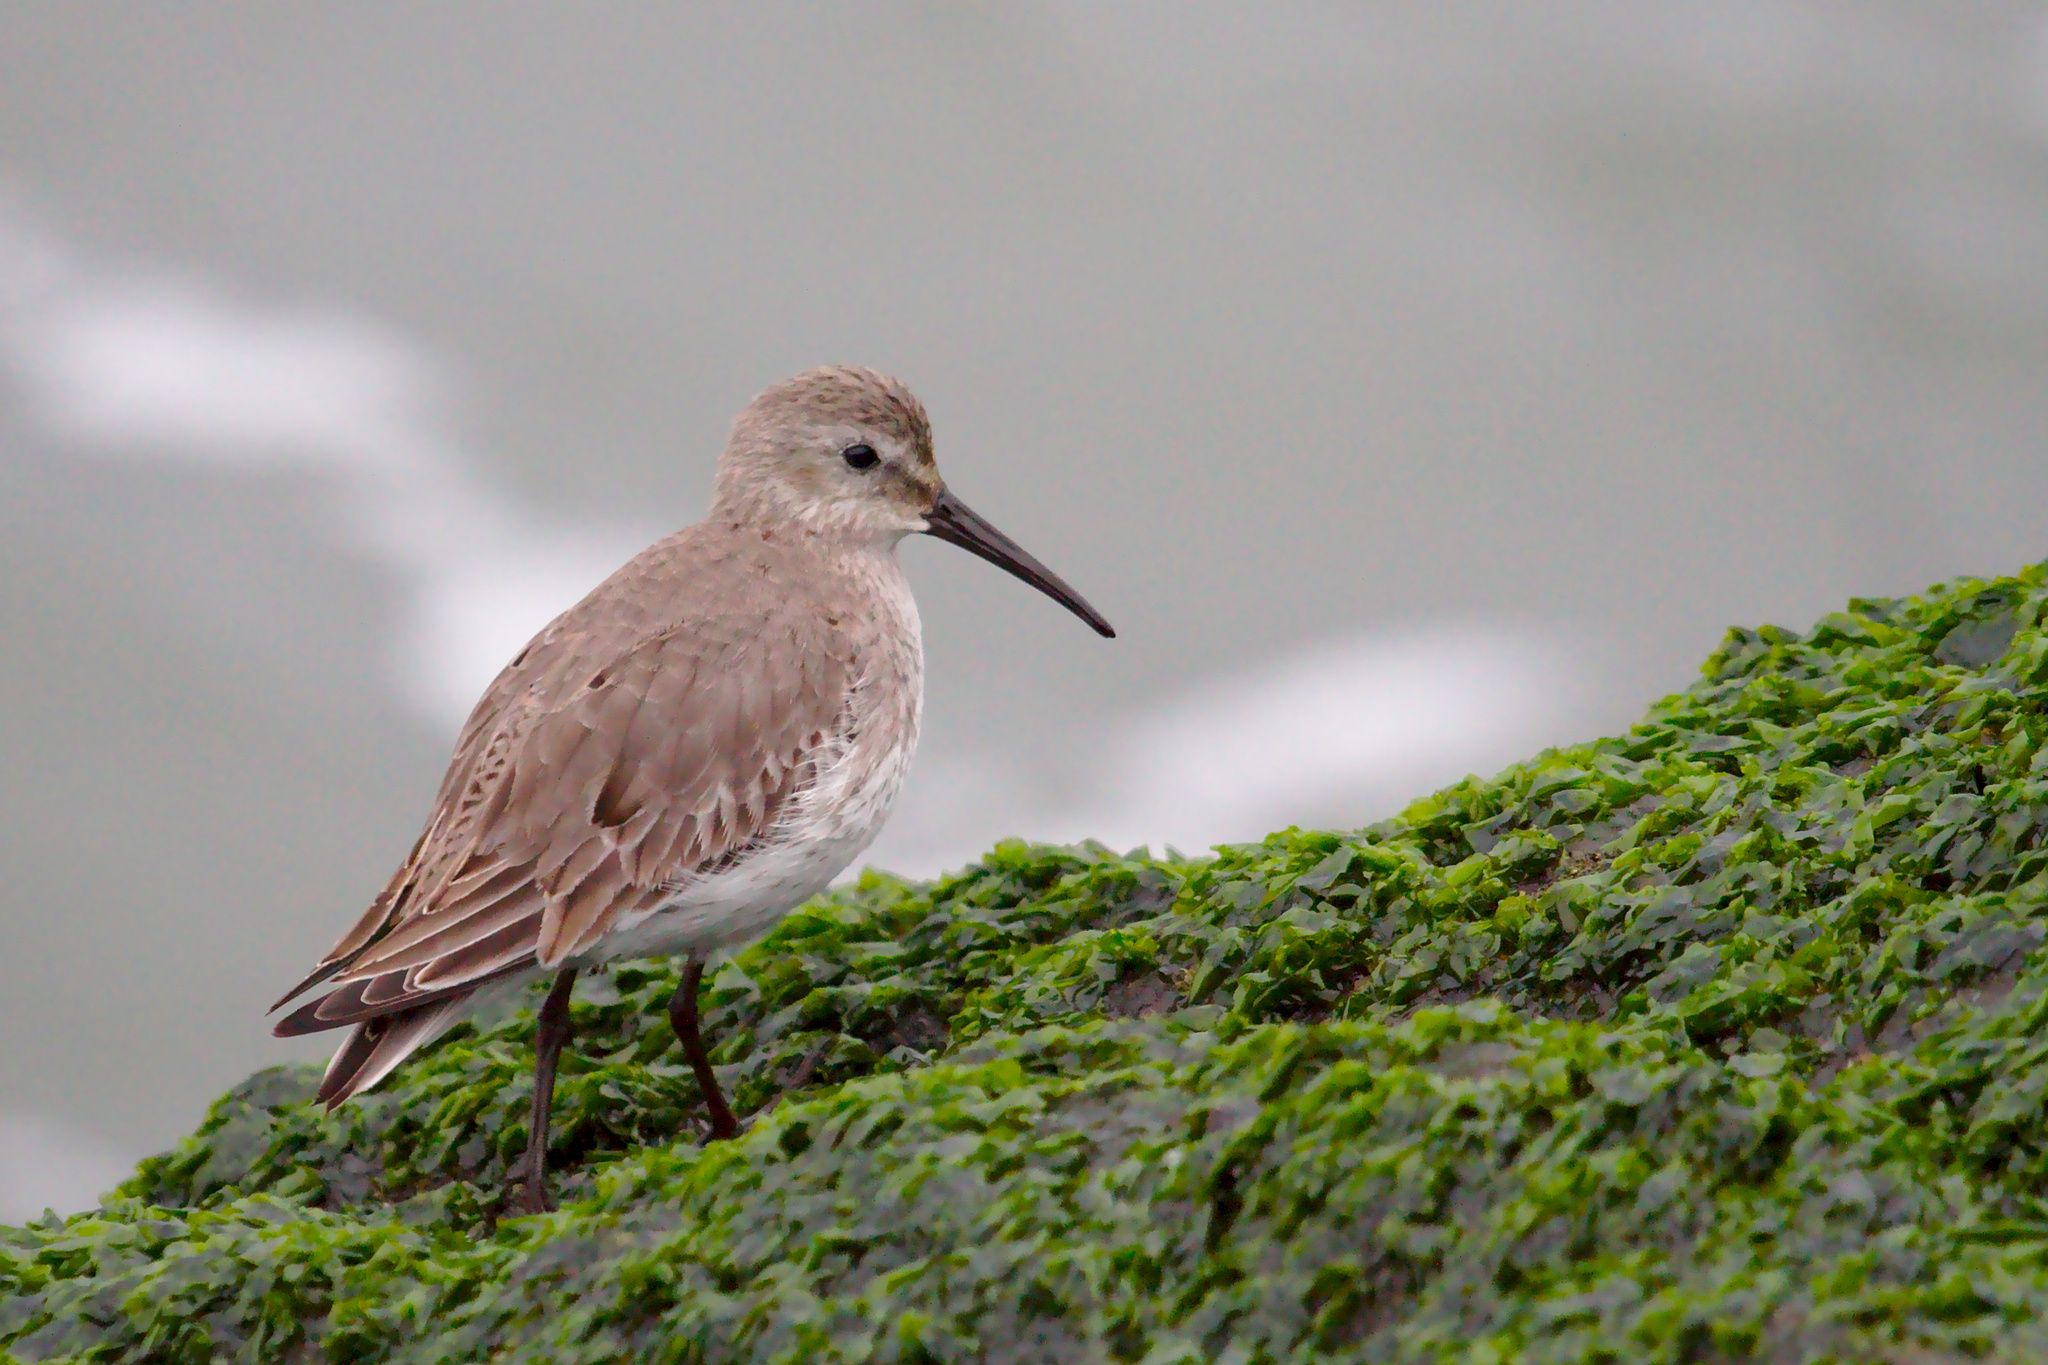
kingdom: Animalia
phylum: Chordata
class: Aves
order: Charadriiformes
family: Scolopacidae
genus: Calidris
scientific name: Calidris alpina
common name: Dunlin
